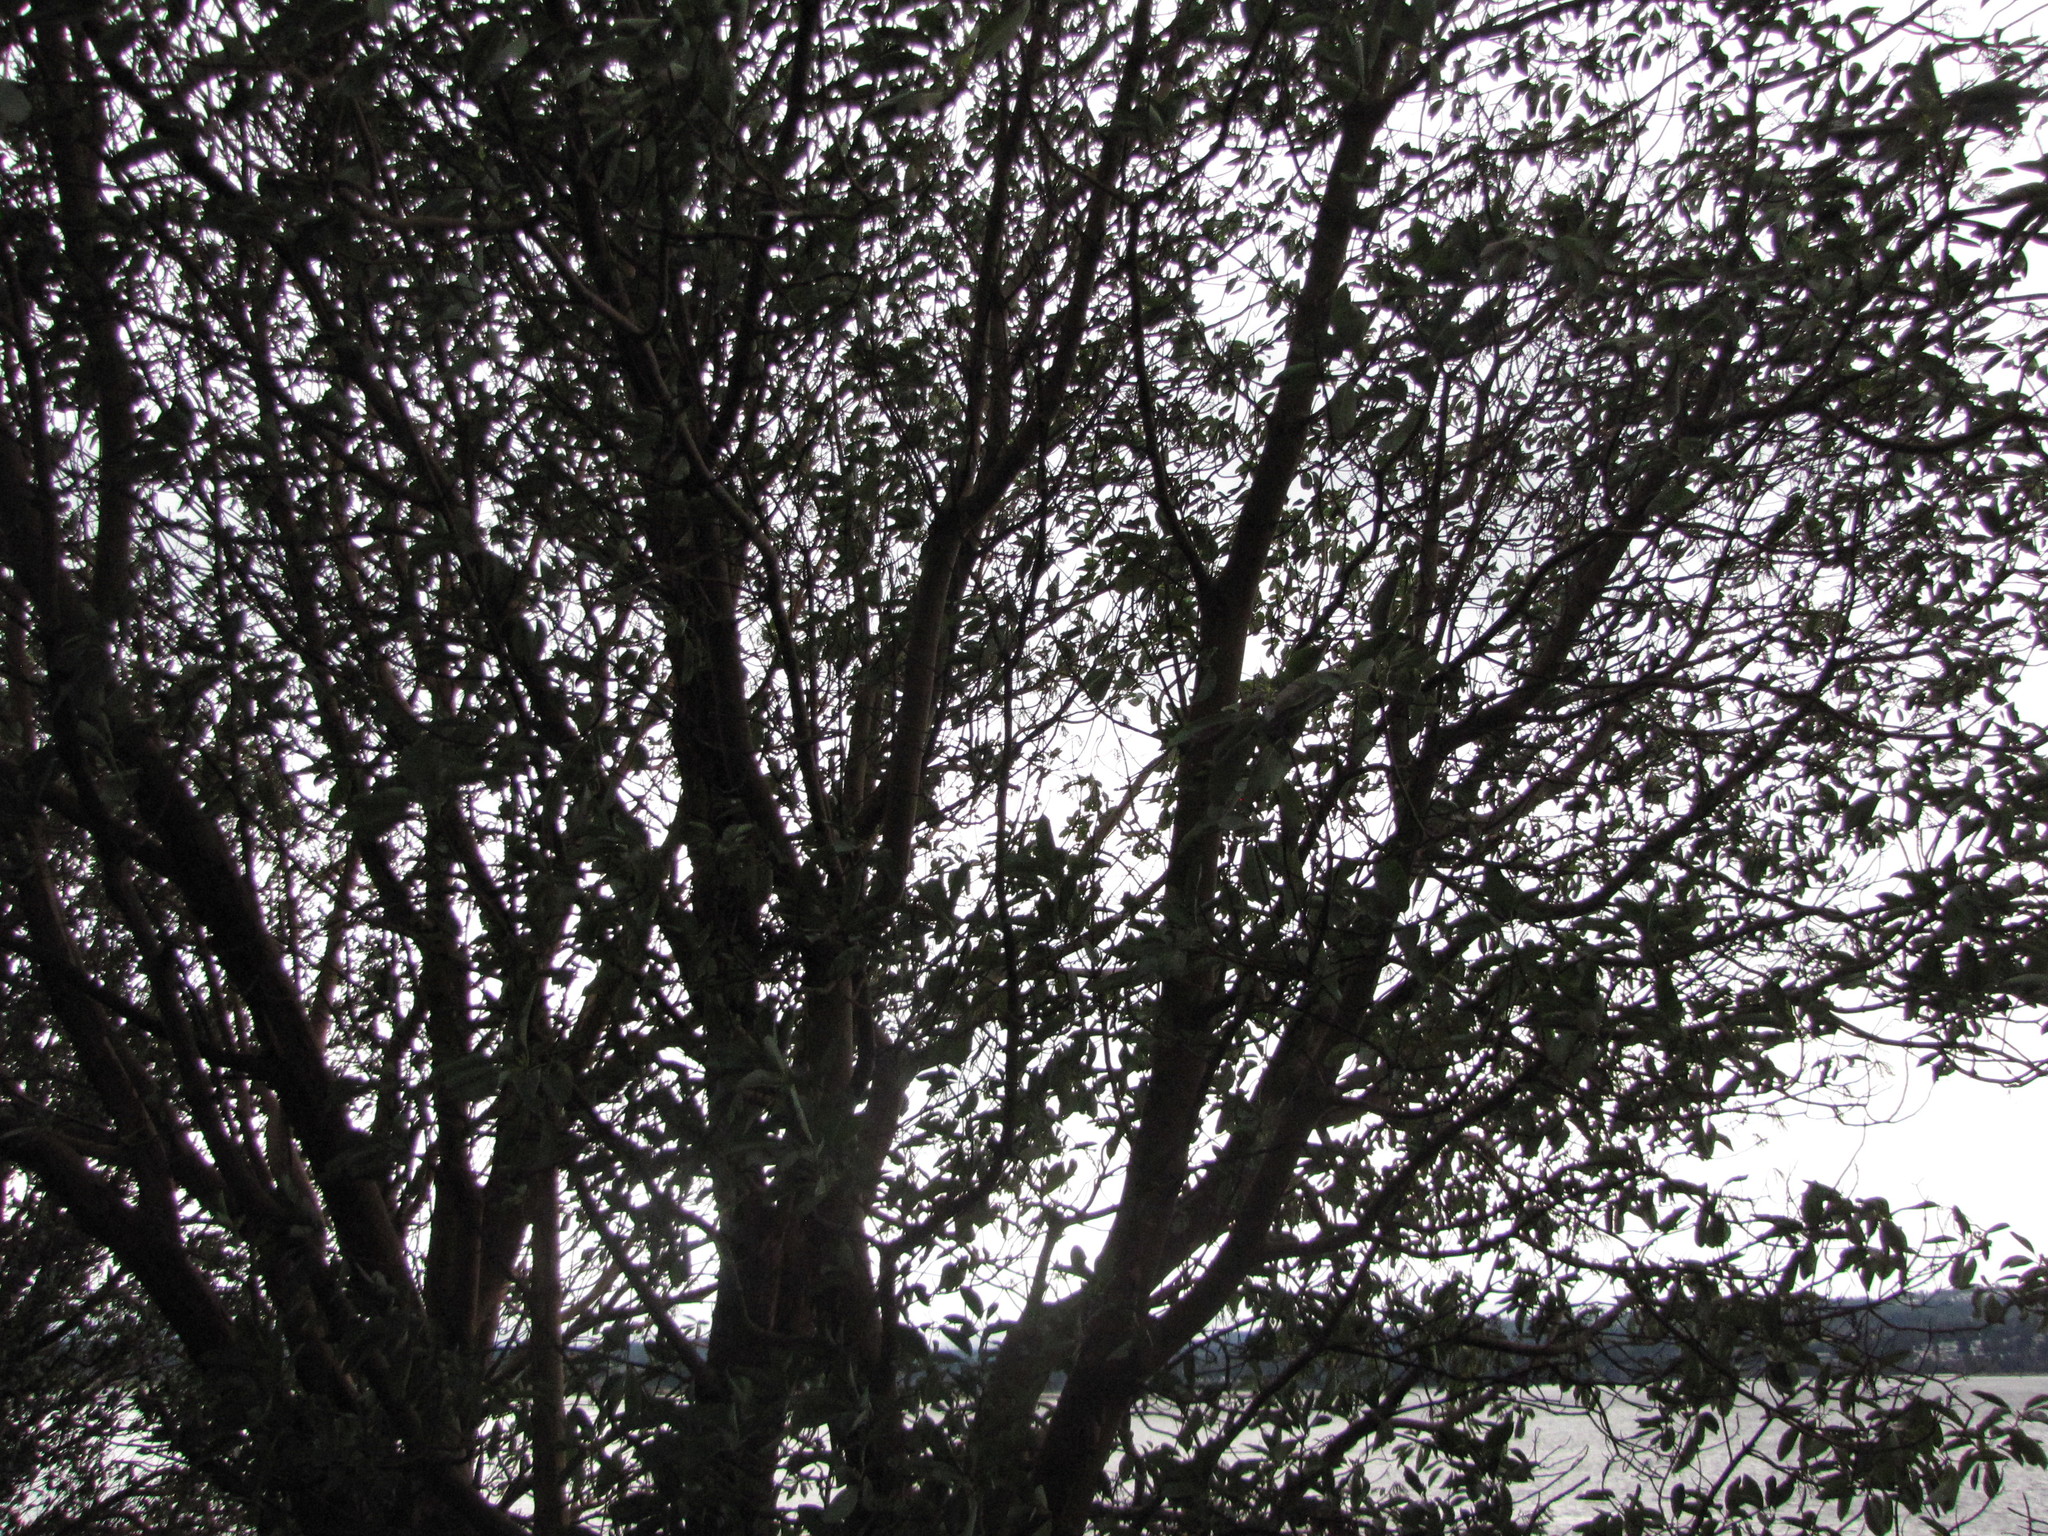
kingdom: Plantae
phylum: Tracheophyta
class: Magnoliopsida
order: Ericales
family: Ericaceae
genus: Arbutus
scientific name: Arbutus menziesii
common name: Pacific madrone
